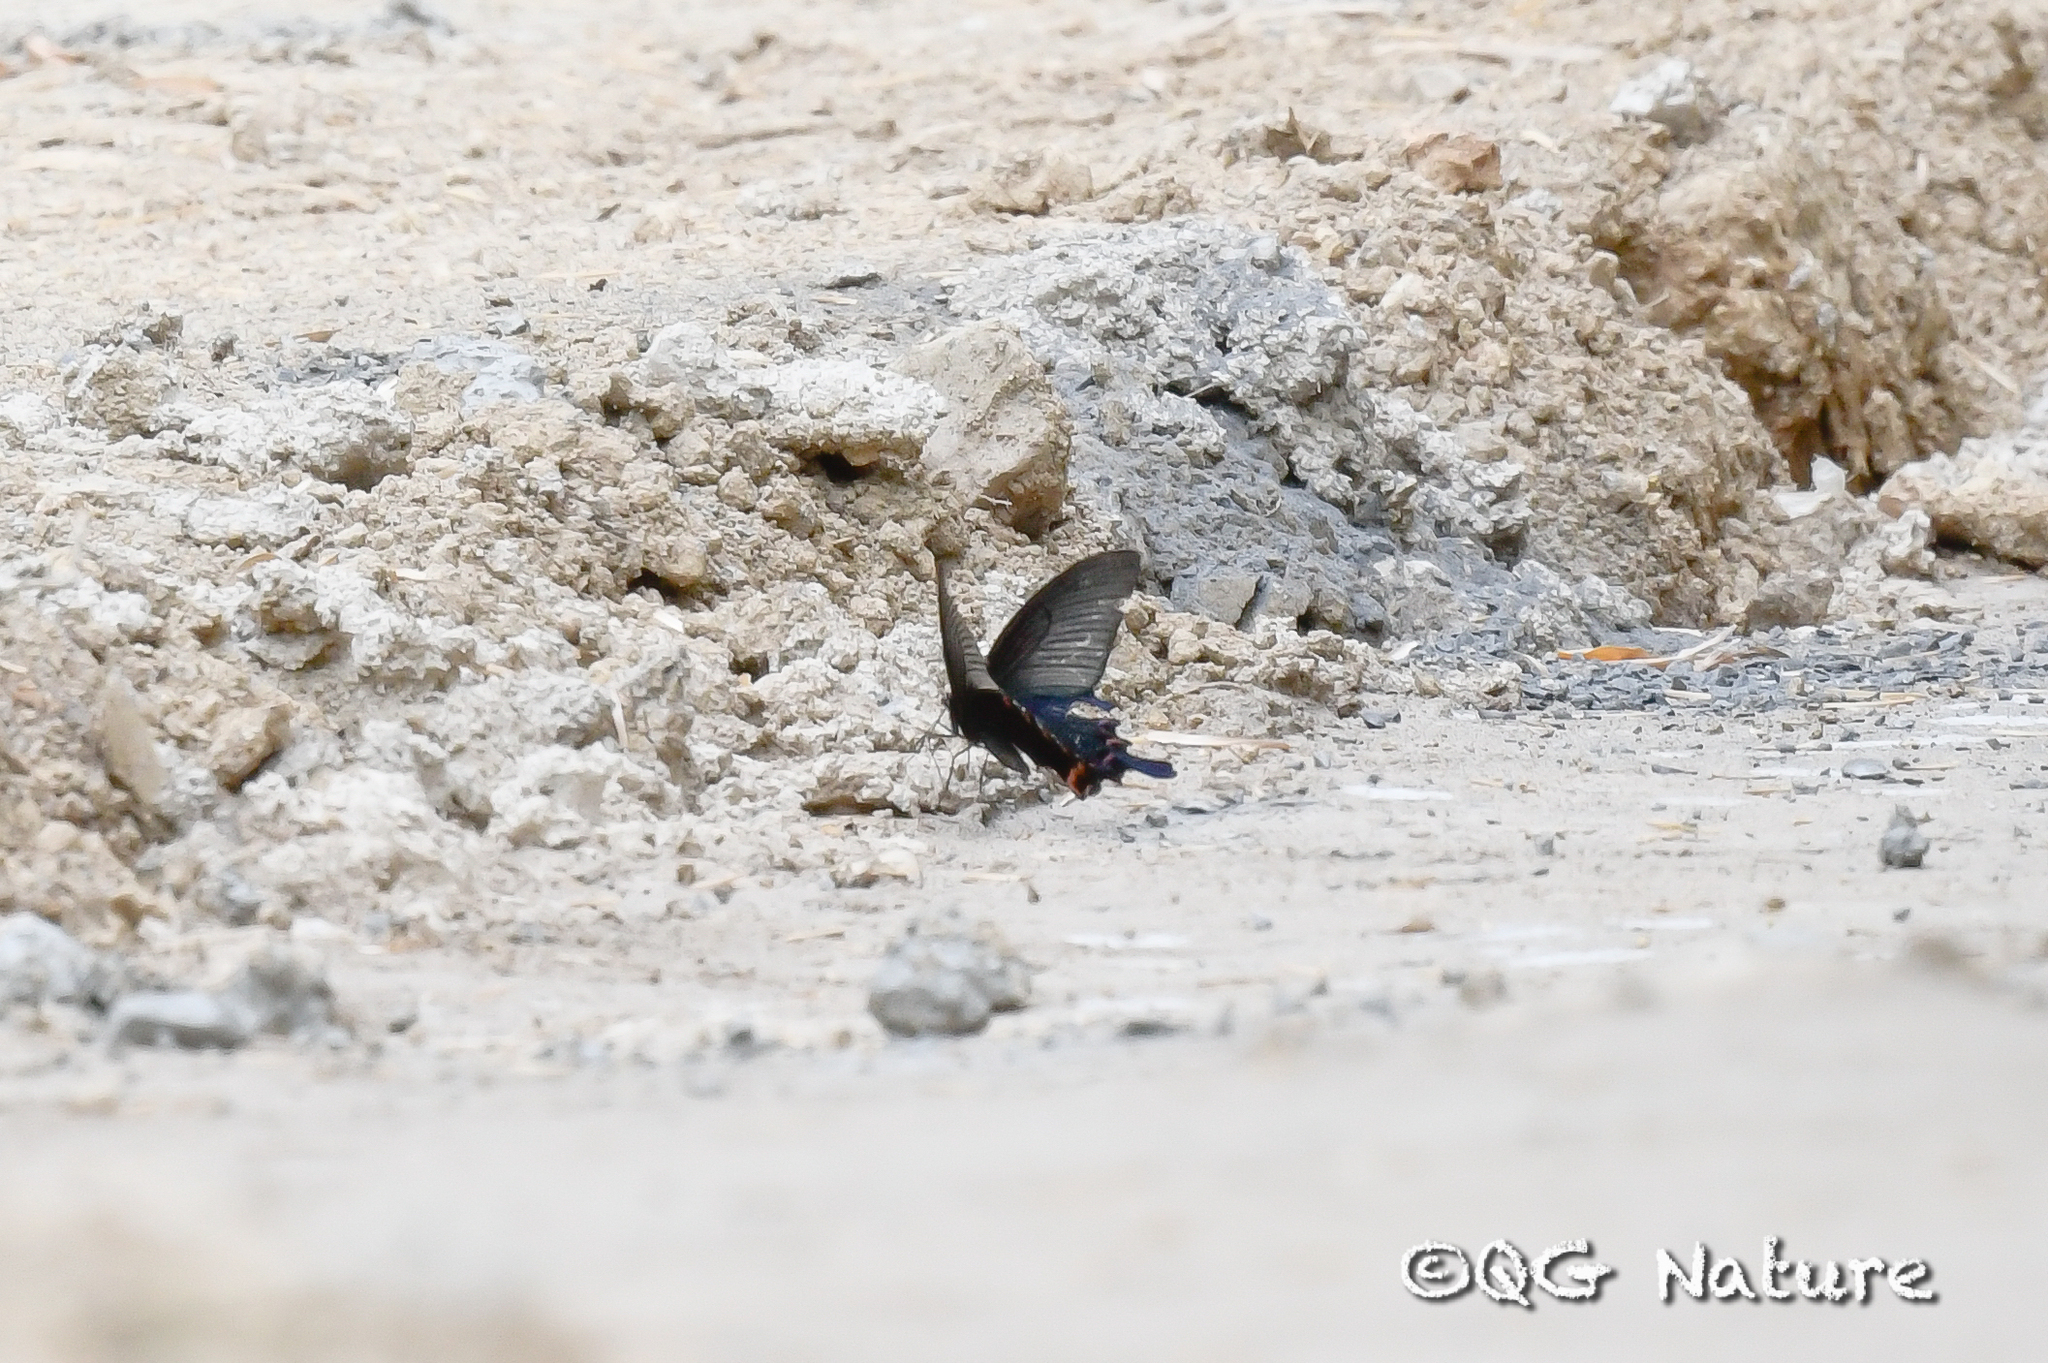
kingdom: Animalia
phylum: Arthropoda
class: Insecta
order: Lepidoptera
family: Papilionidae
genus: Papilio
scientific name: Papilio dialis
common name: Southern chinese peacock swallowtail
